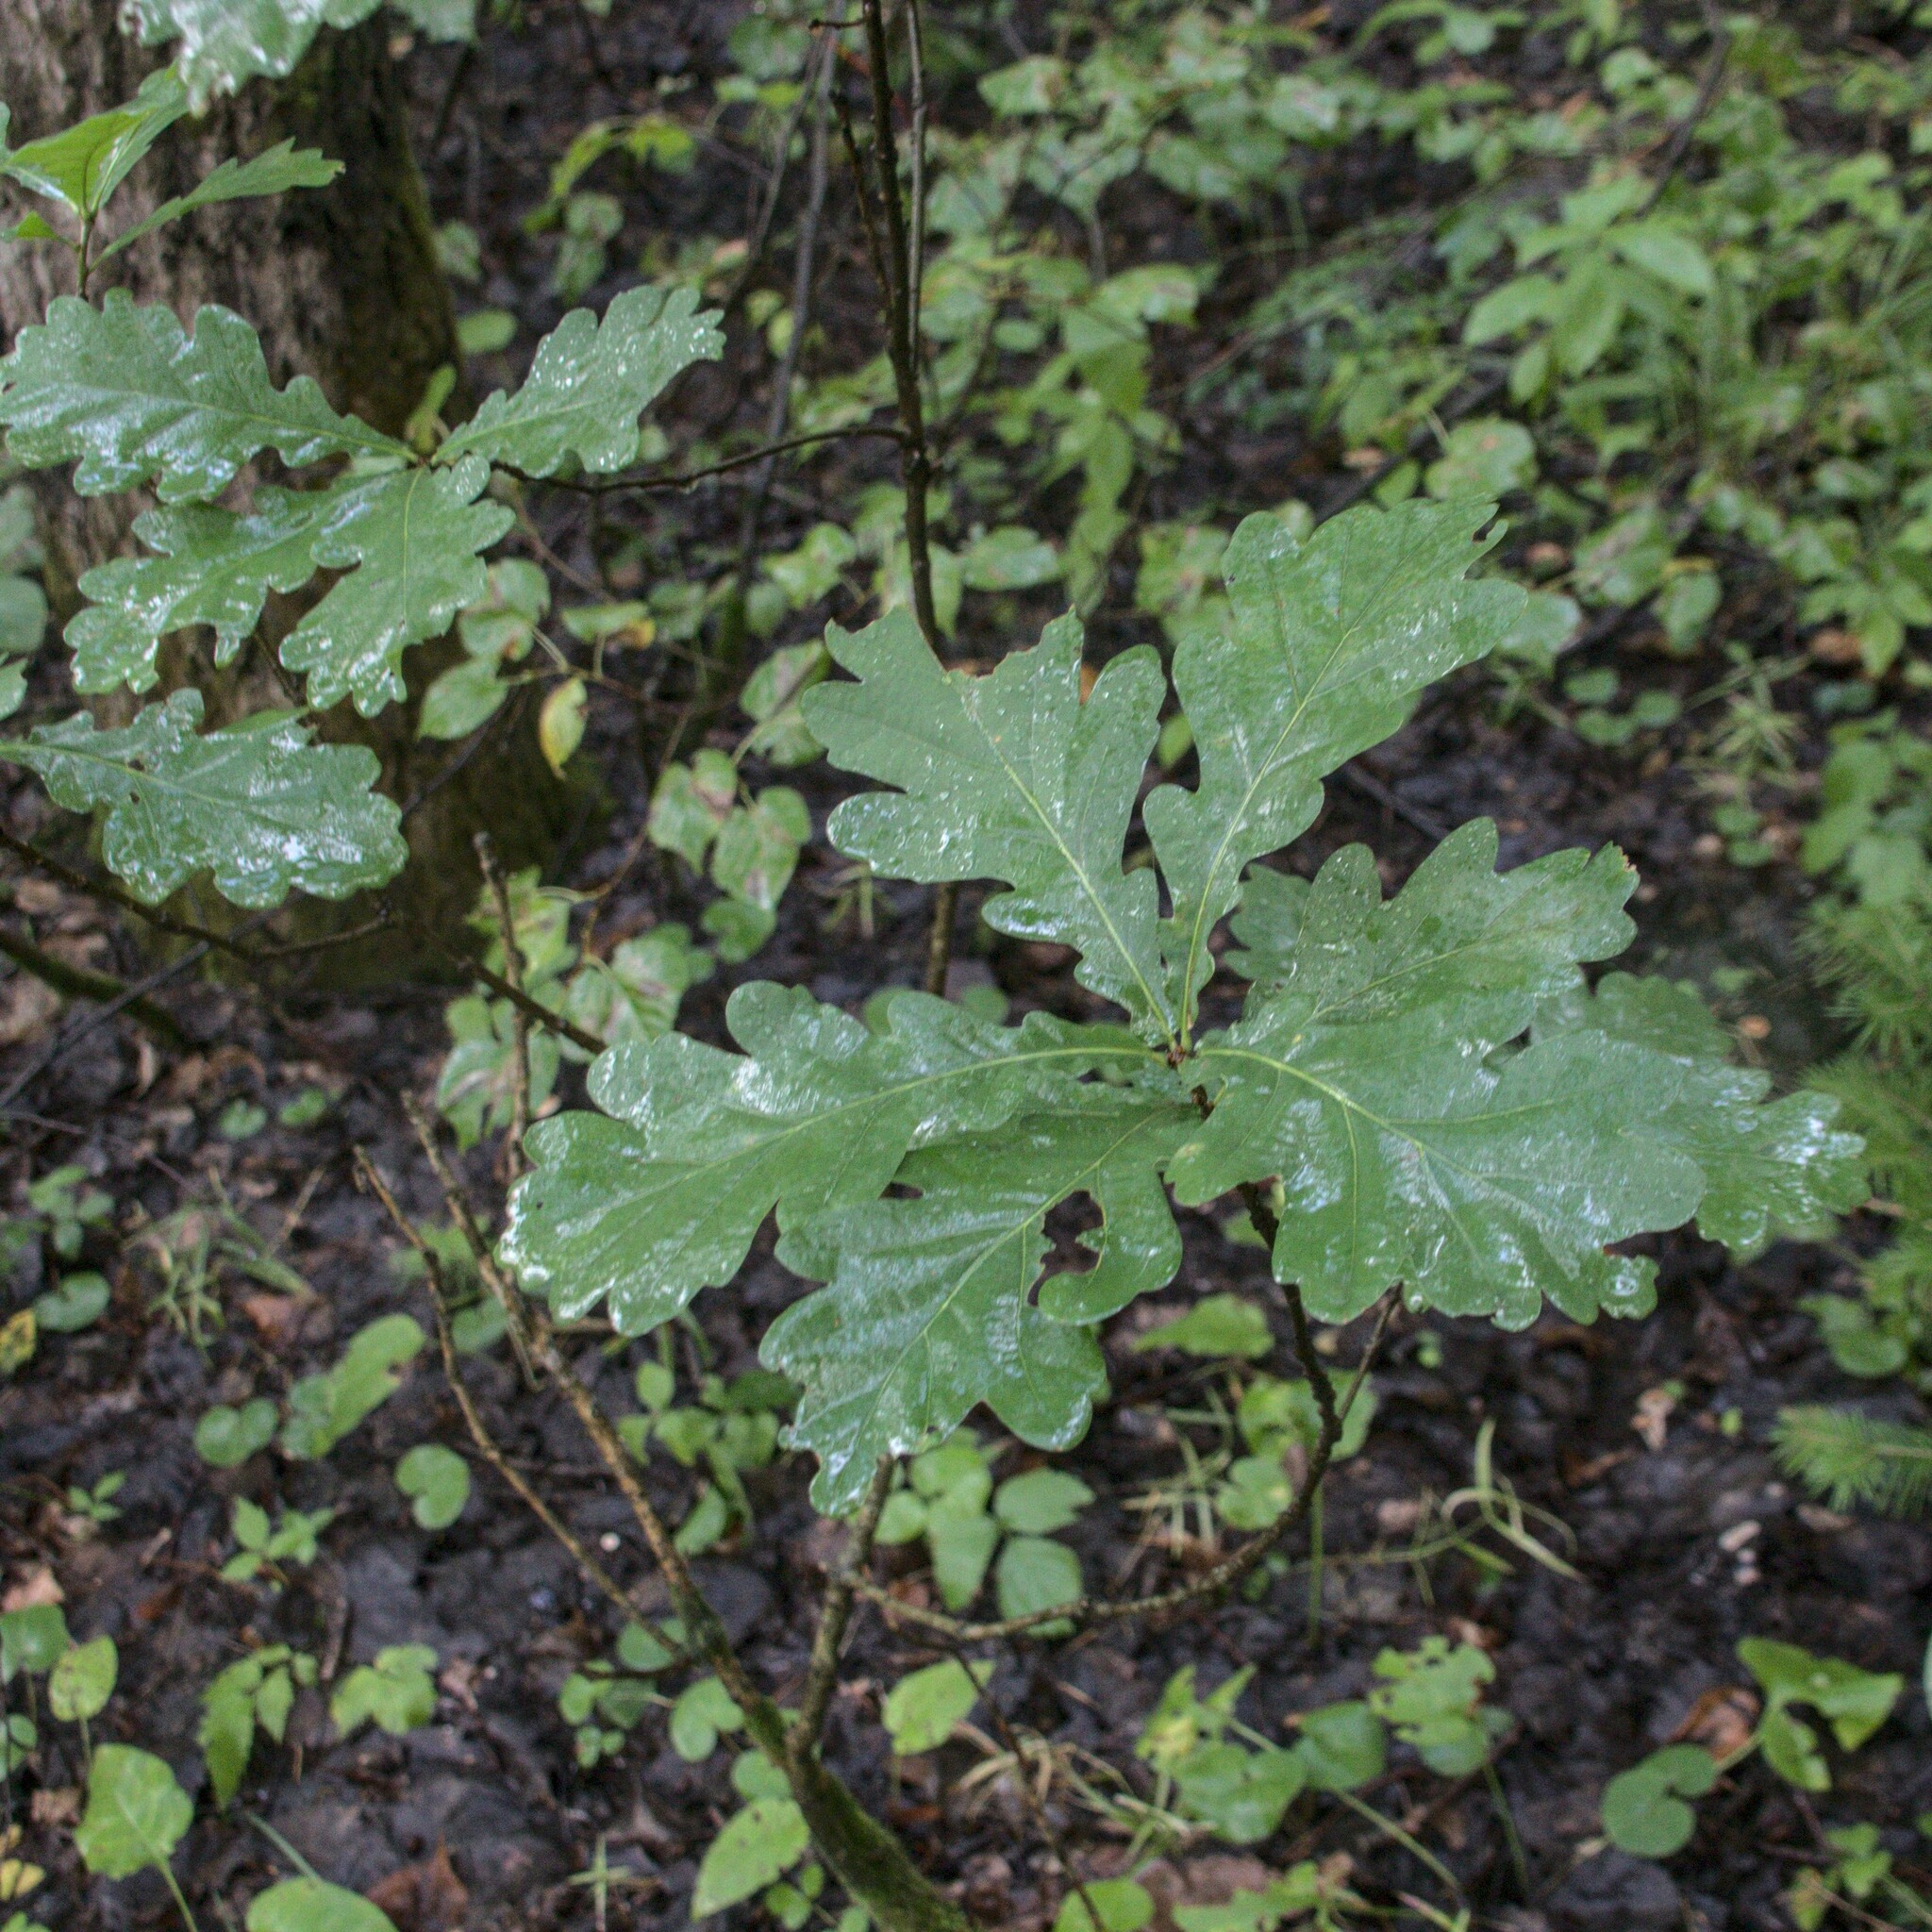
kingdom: Plantae
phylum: Tracheophyta
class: Magnoliopsida
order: Fagales
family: Fagaceae
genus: Quercus
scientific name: Quercus robur
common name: Pedunculate oak
